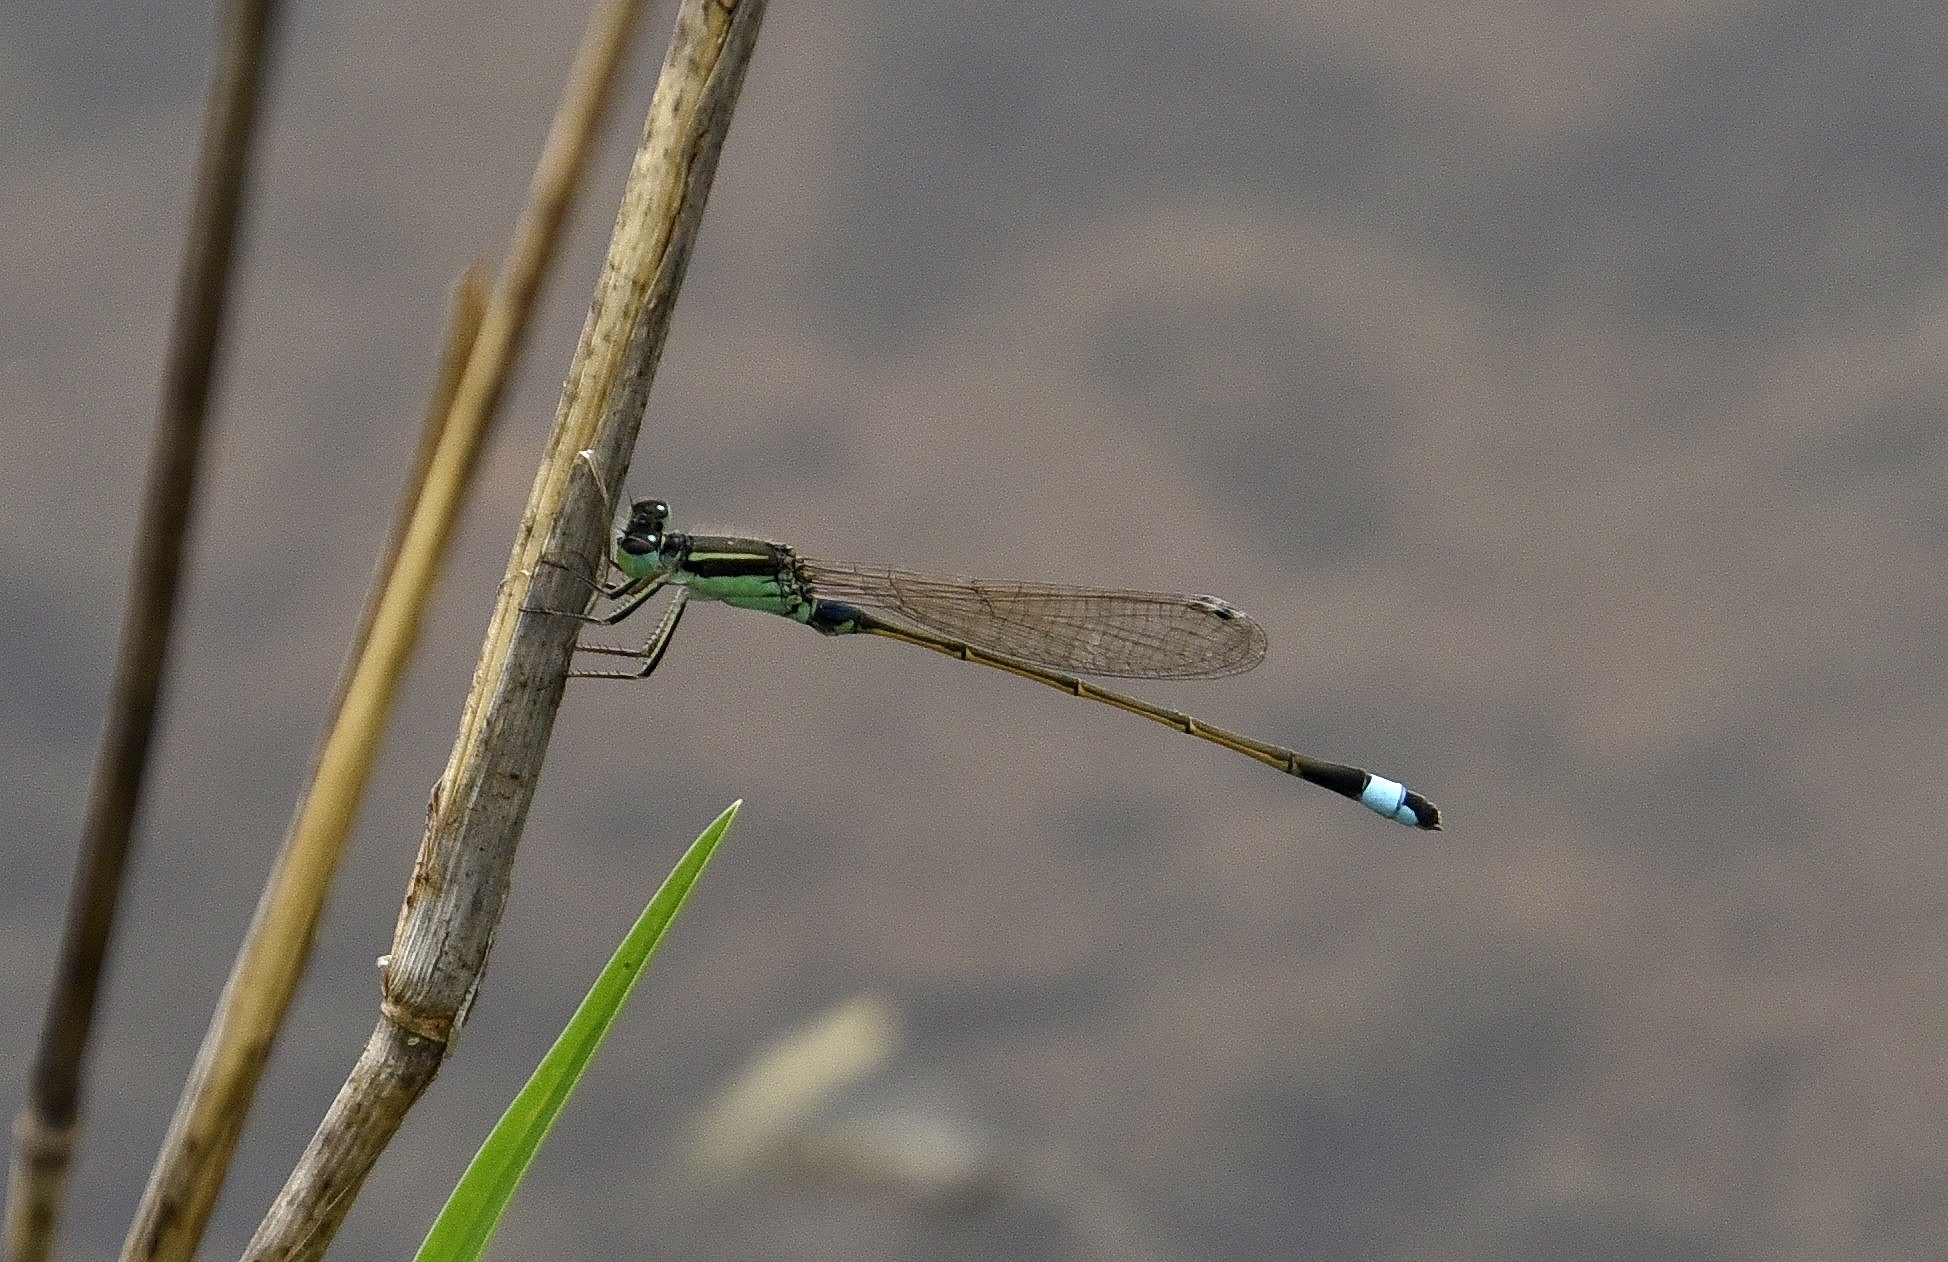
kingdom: Animalia
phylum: Arthropoda
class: Insecta
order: Odonata
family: Coenagrionidae
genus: Ischnura
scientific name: Ischnura senegalensis
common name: Tropical bluetail
